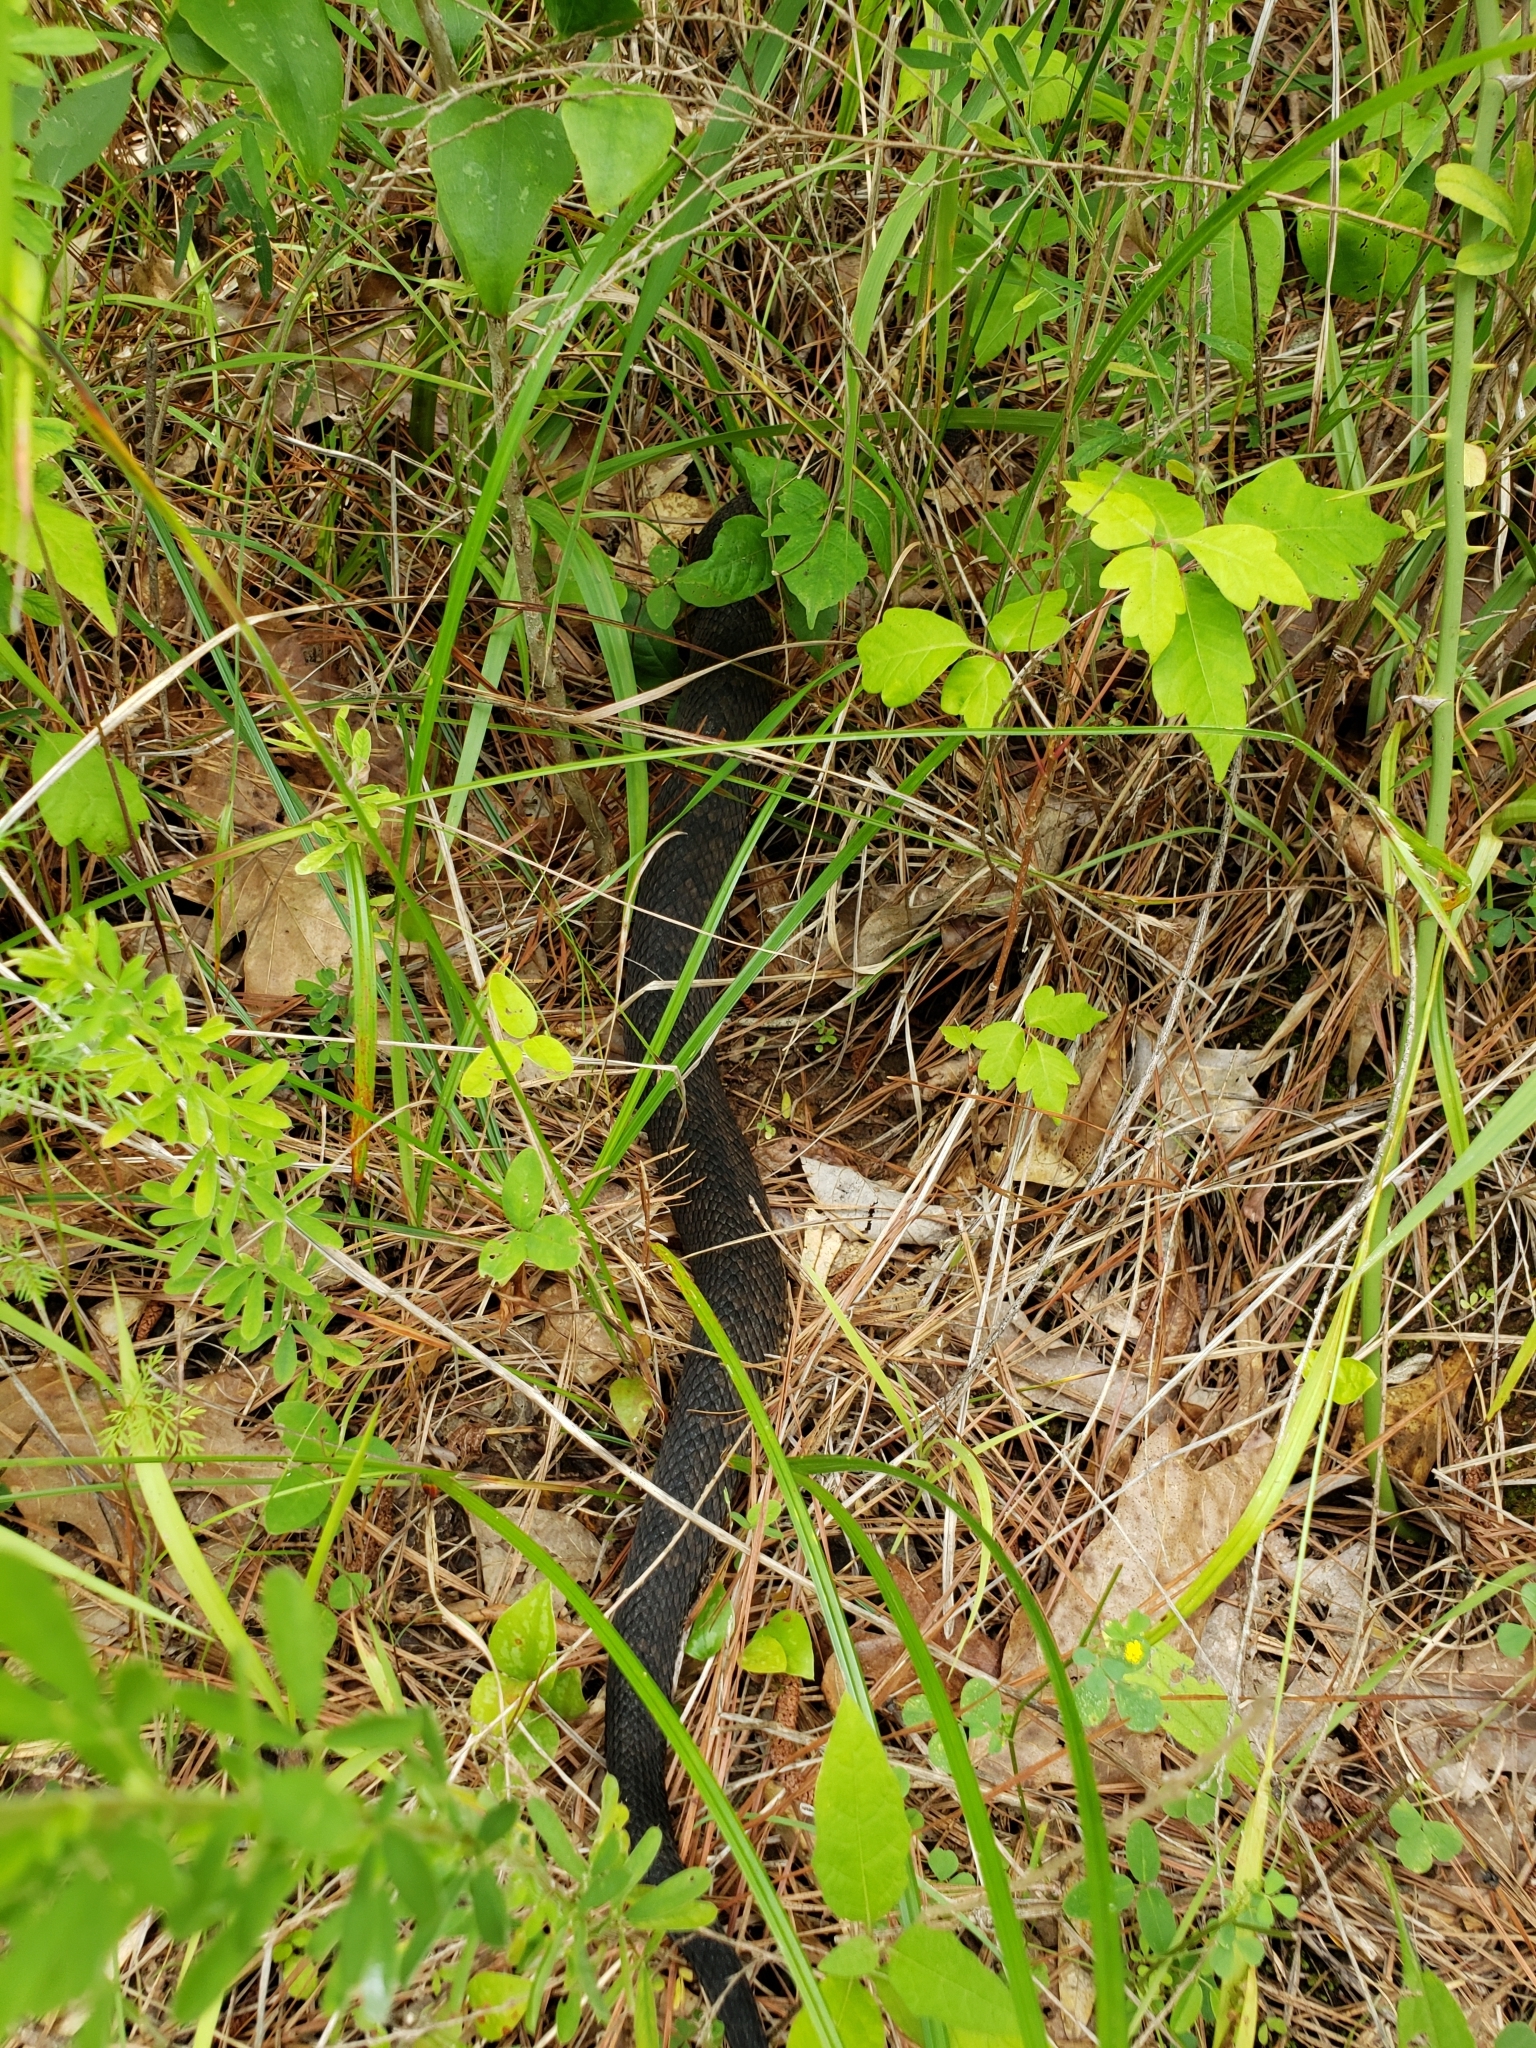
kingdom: Animalia
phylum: Chordata
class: Squamata
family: Viperidae
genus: Agkistrodon
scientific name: Agkistrodon piscivorus
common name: Cottonmouth
